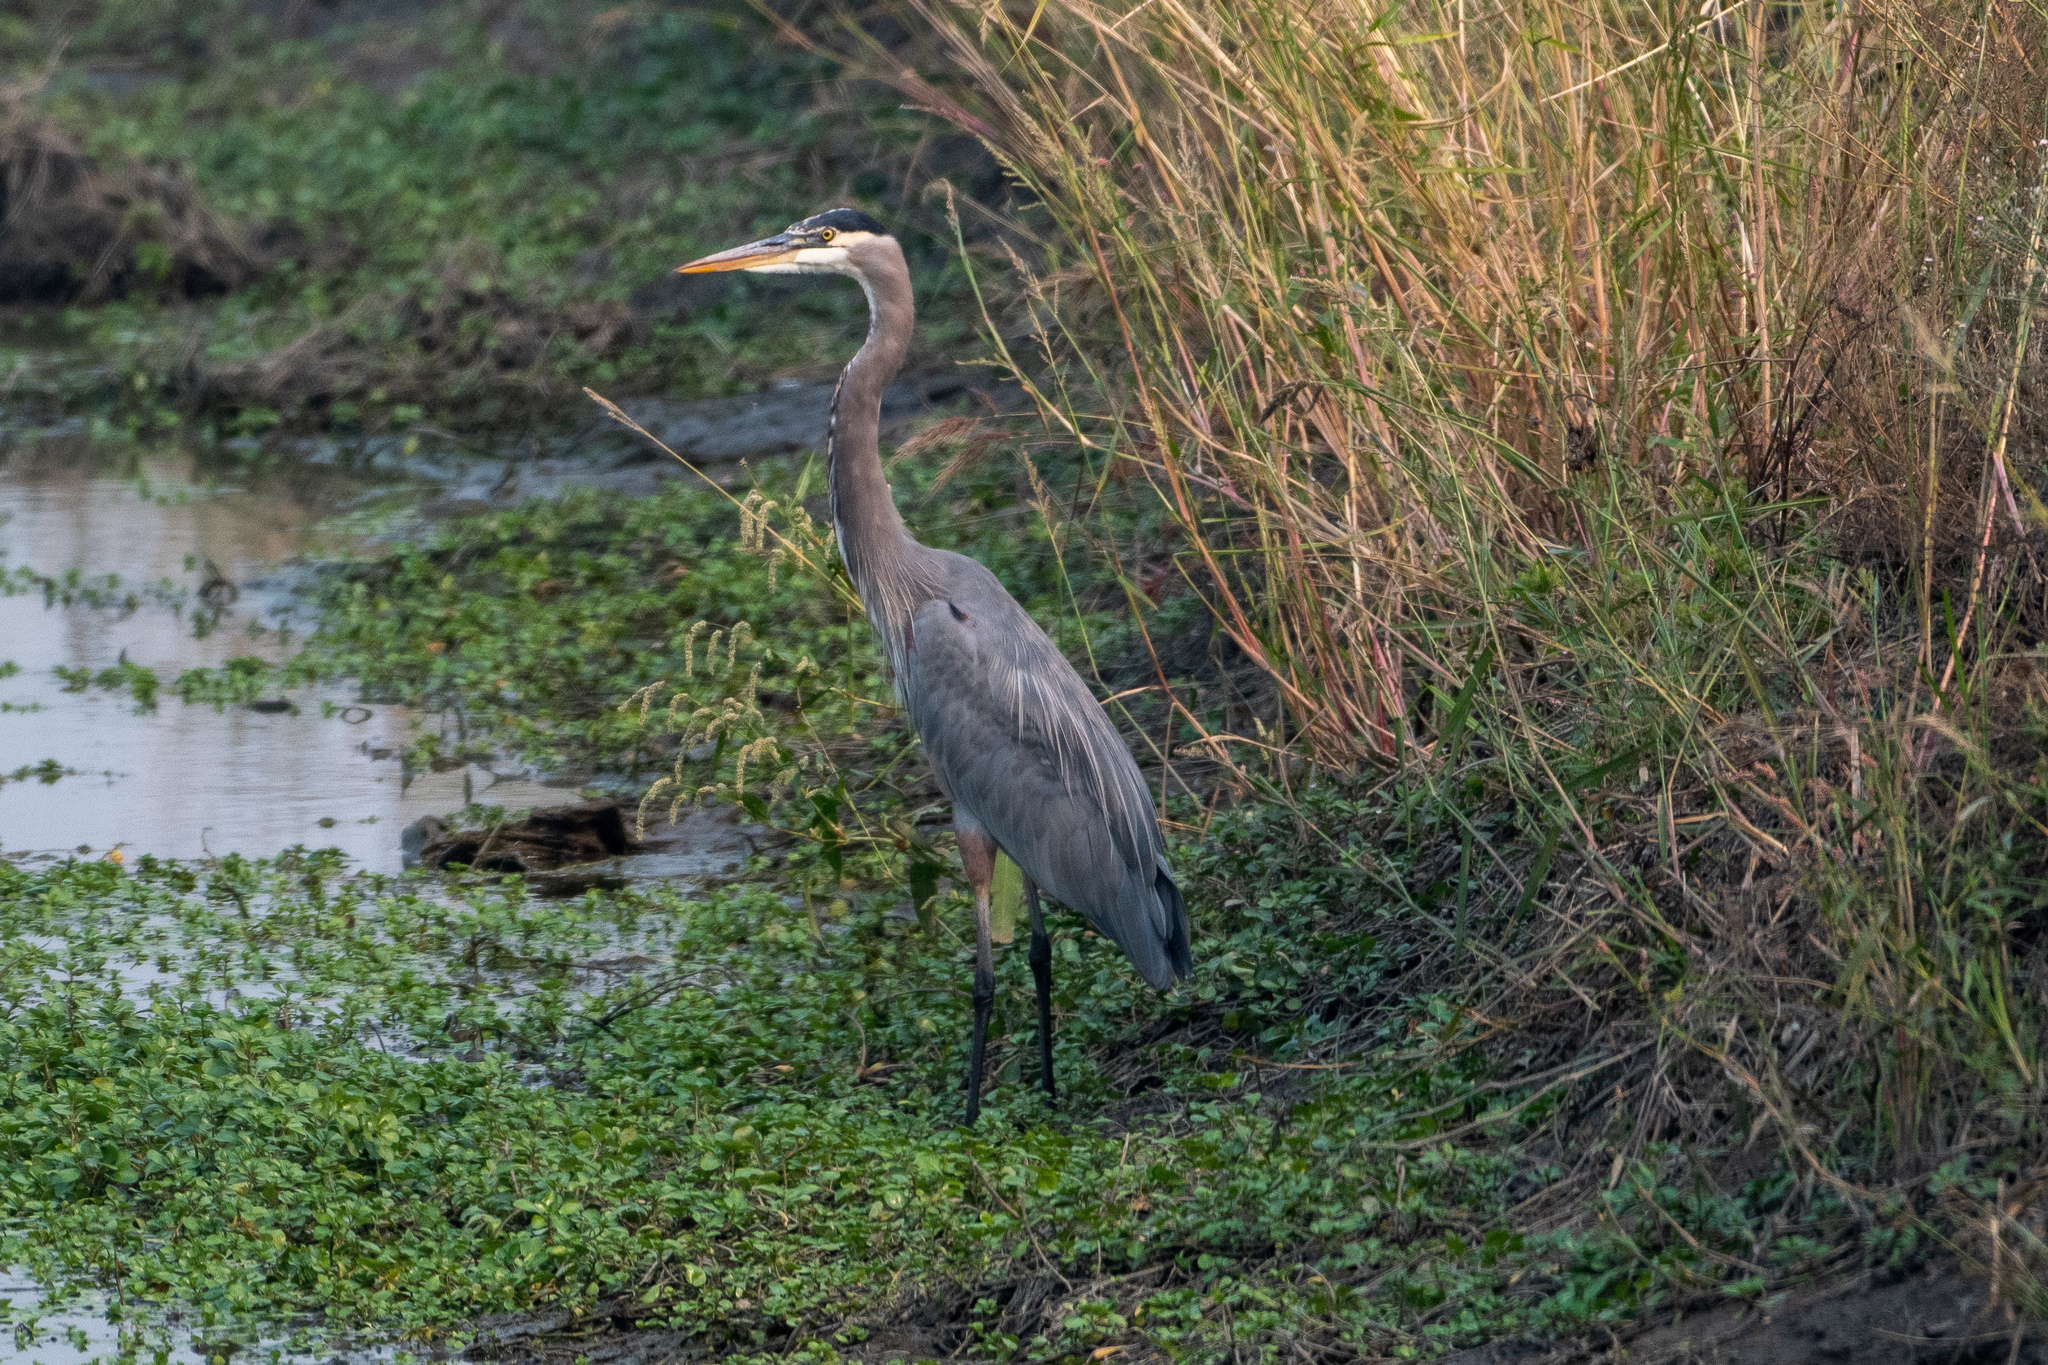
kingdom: Animalia
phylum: Chordata
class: Aves
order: Pelecaniformes
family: Ardeidae
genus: Ardea
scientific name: Ardea herodias
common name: Great blue heron
